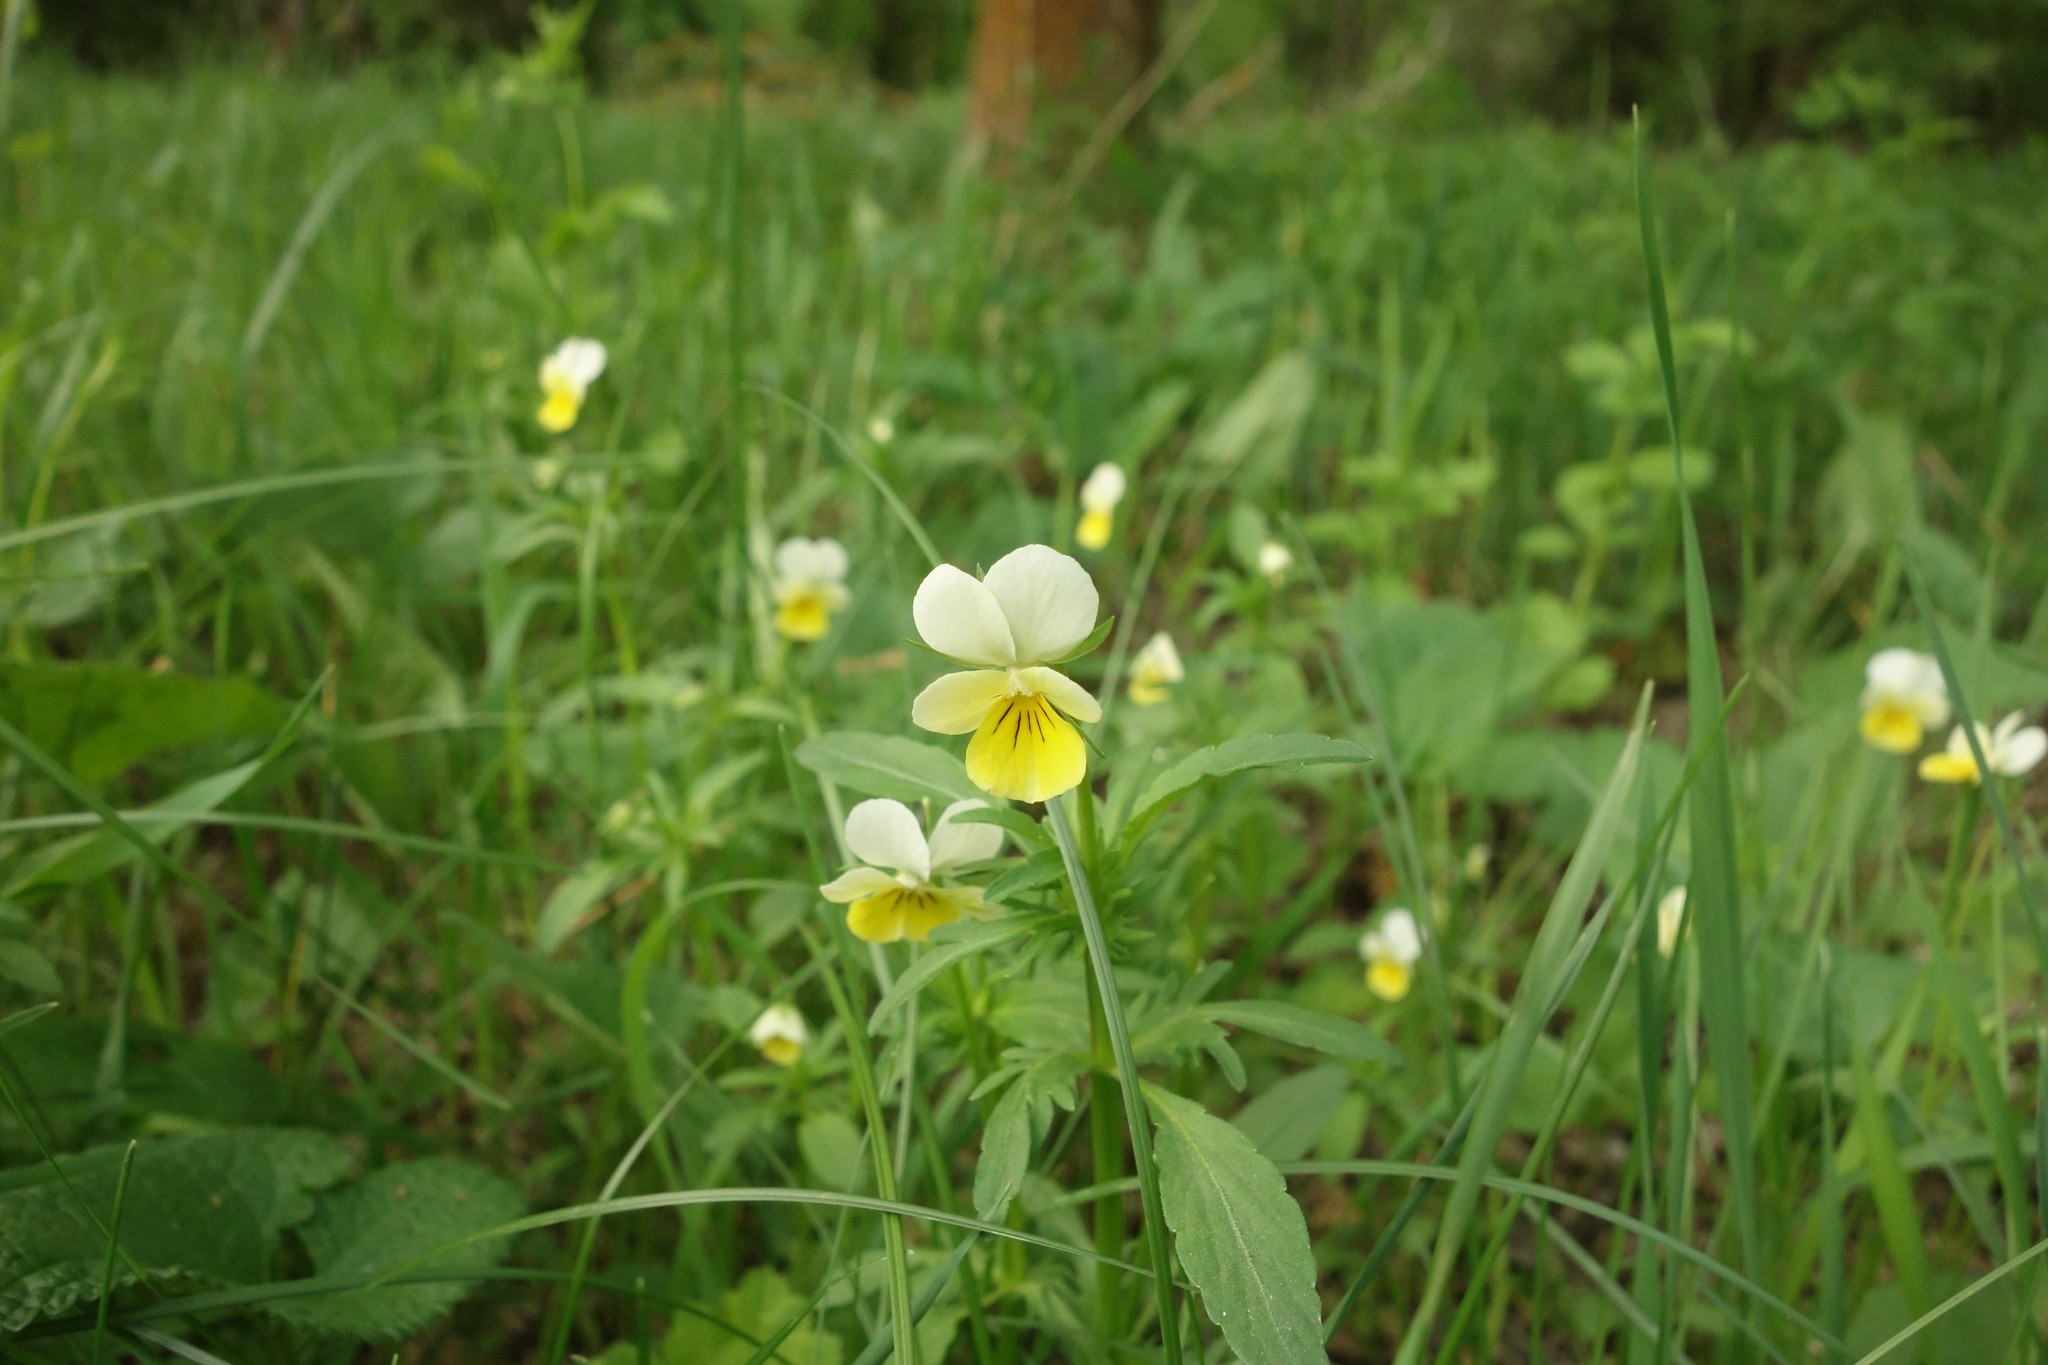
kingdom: Plantae
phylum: Tracheophyta
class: Magnoliopsida
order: Malpighiales
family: Violaceae
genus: Viola
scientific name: Viola tricolor
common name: Pansy
